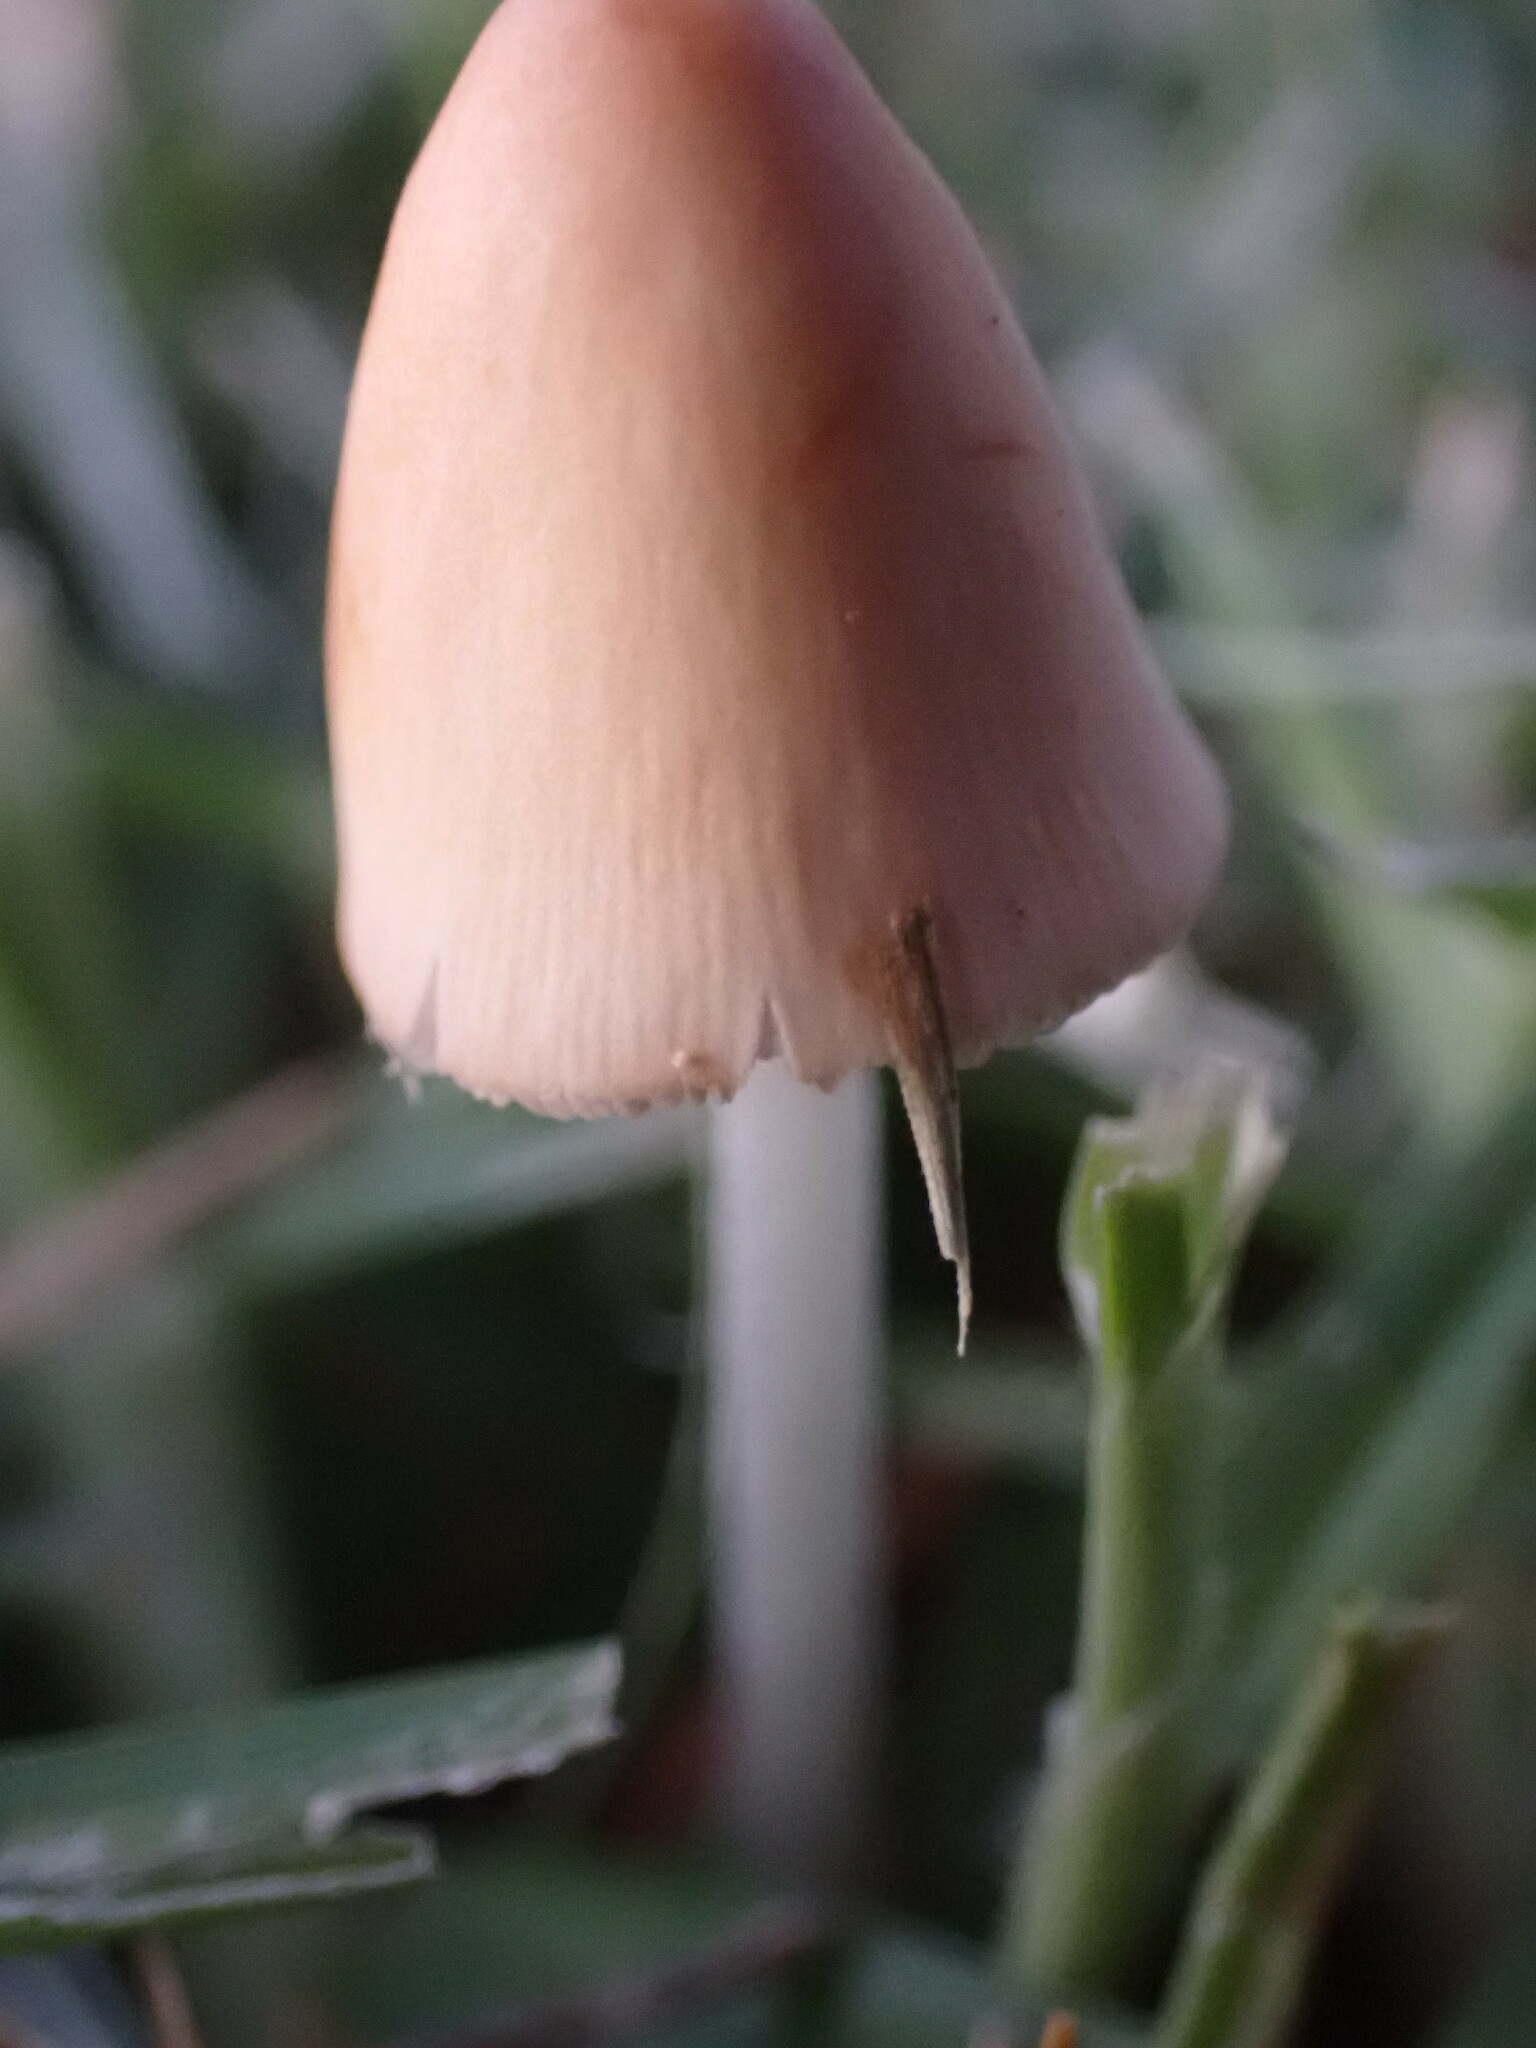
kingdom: Fungi
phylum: Basidiomycota
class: Agaricomycetes
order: Agaricales
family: Bolbitiaceae
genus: Conocybe
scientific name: Conocybe apala
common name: Milky conecap
